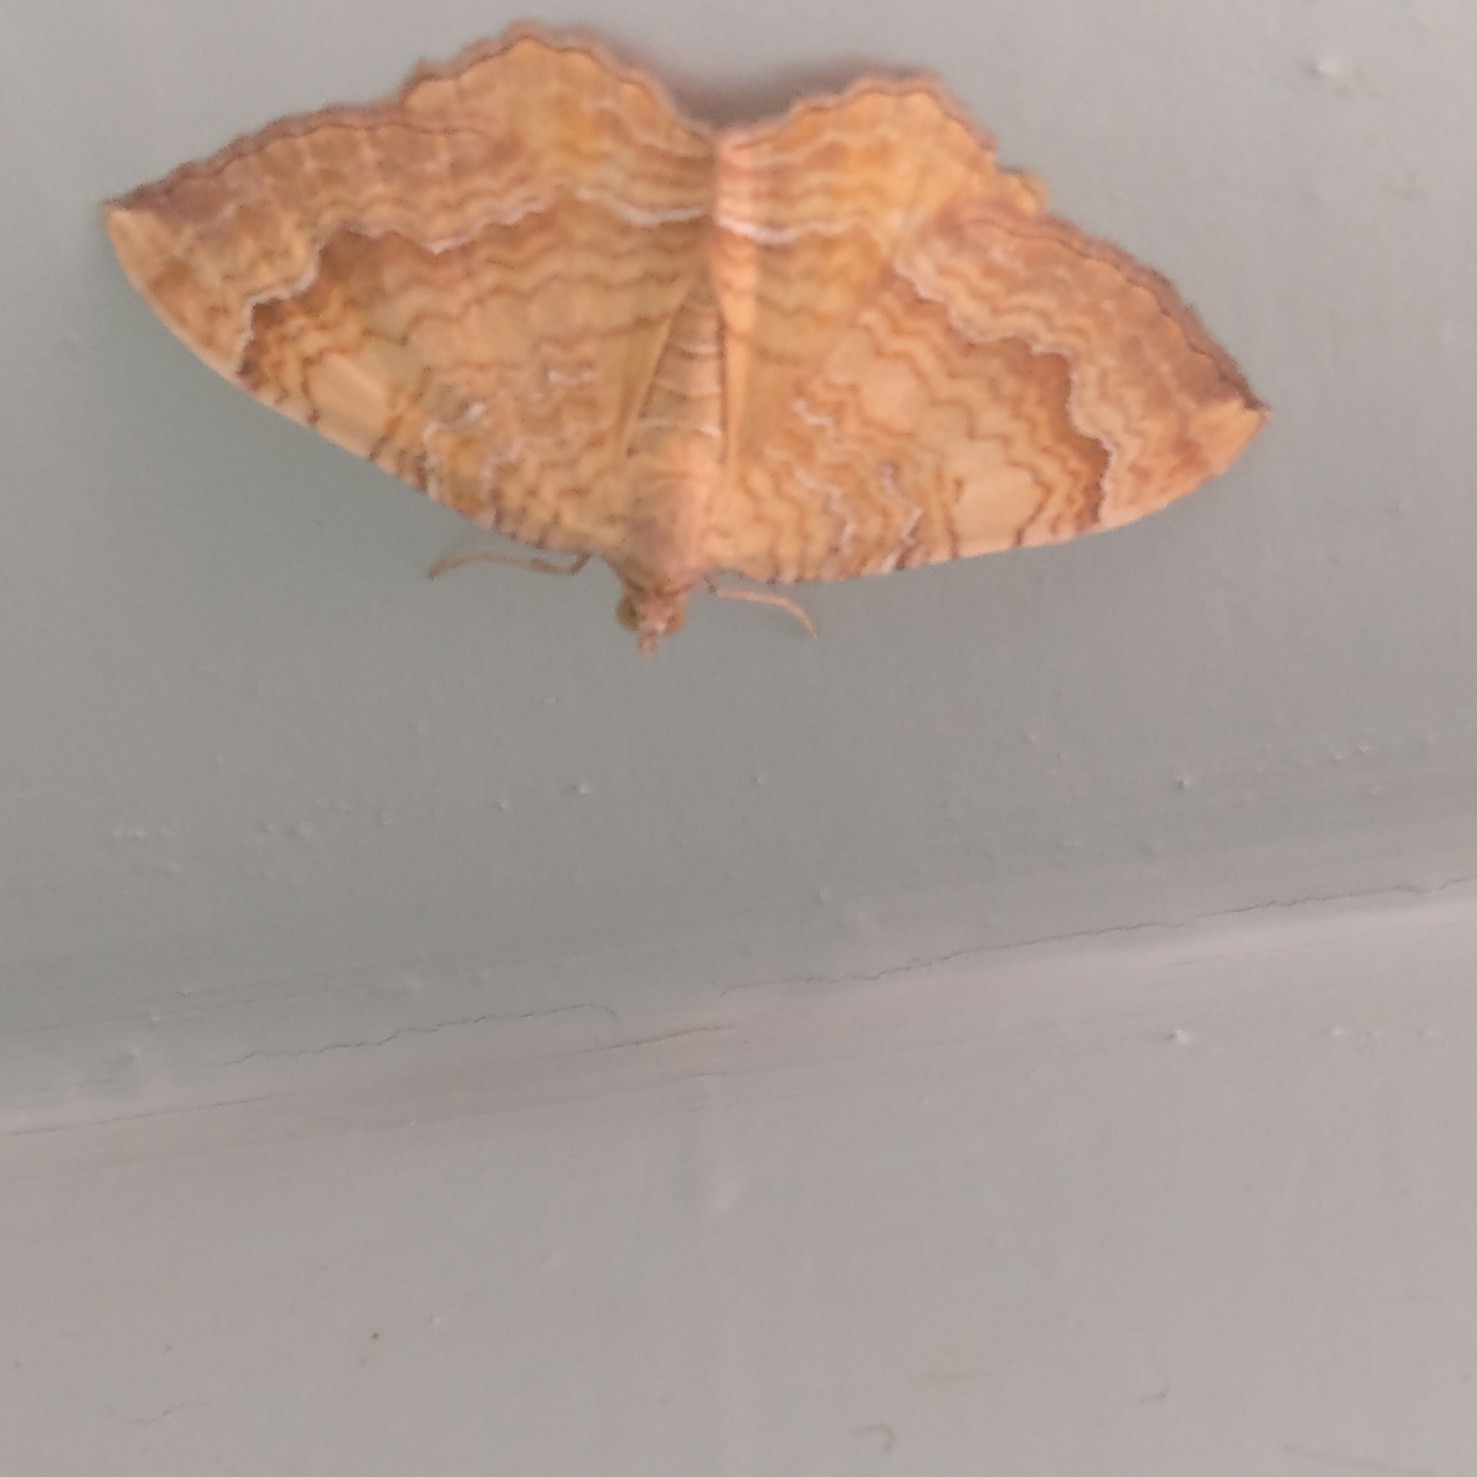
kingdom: Animalia
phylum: Arthropoda
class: Insecta
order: Lepidoptera
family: Geometridae
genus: Camptogramma
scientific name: Camptogramma bilineata
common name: Yellow shell
